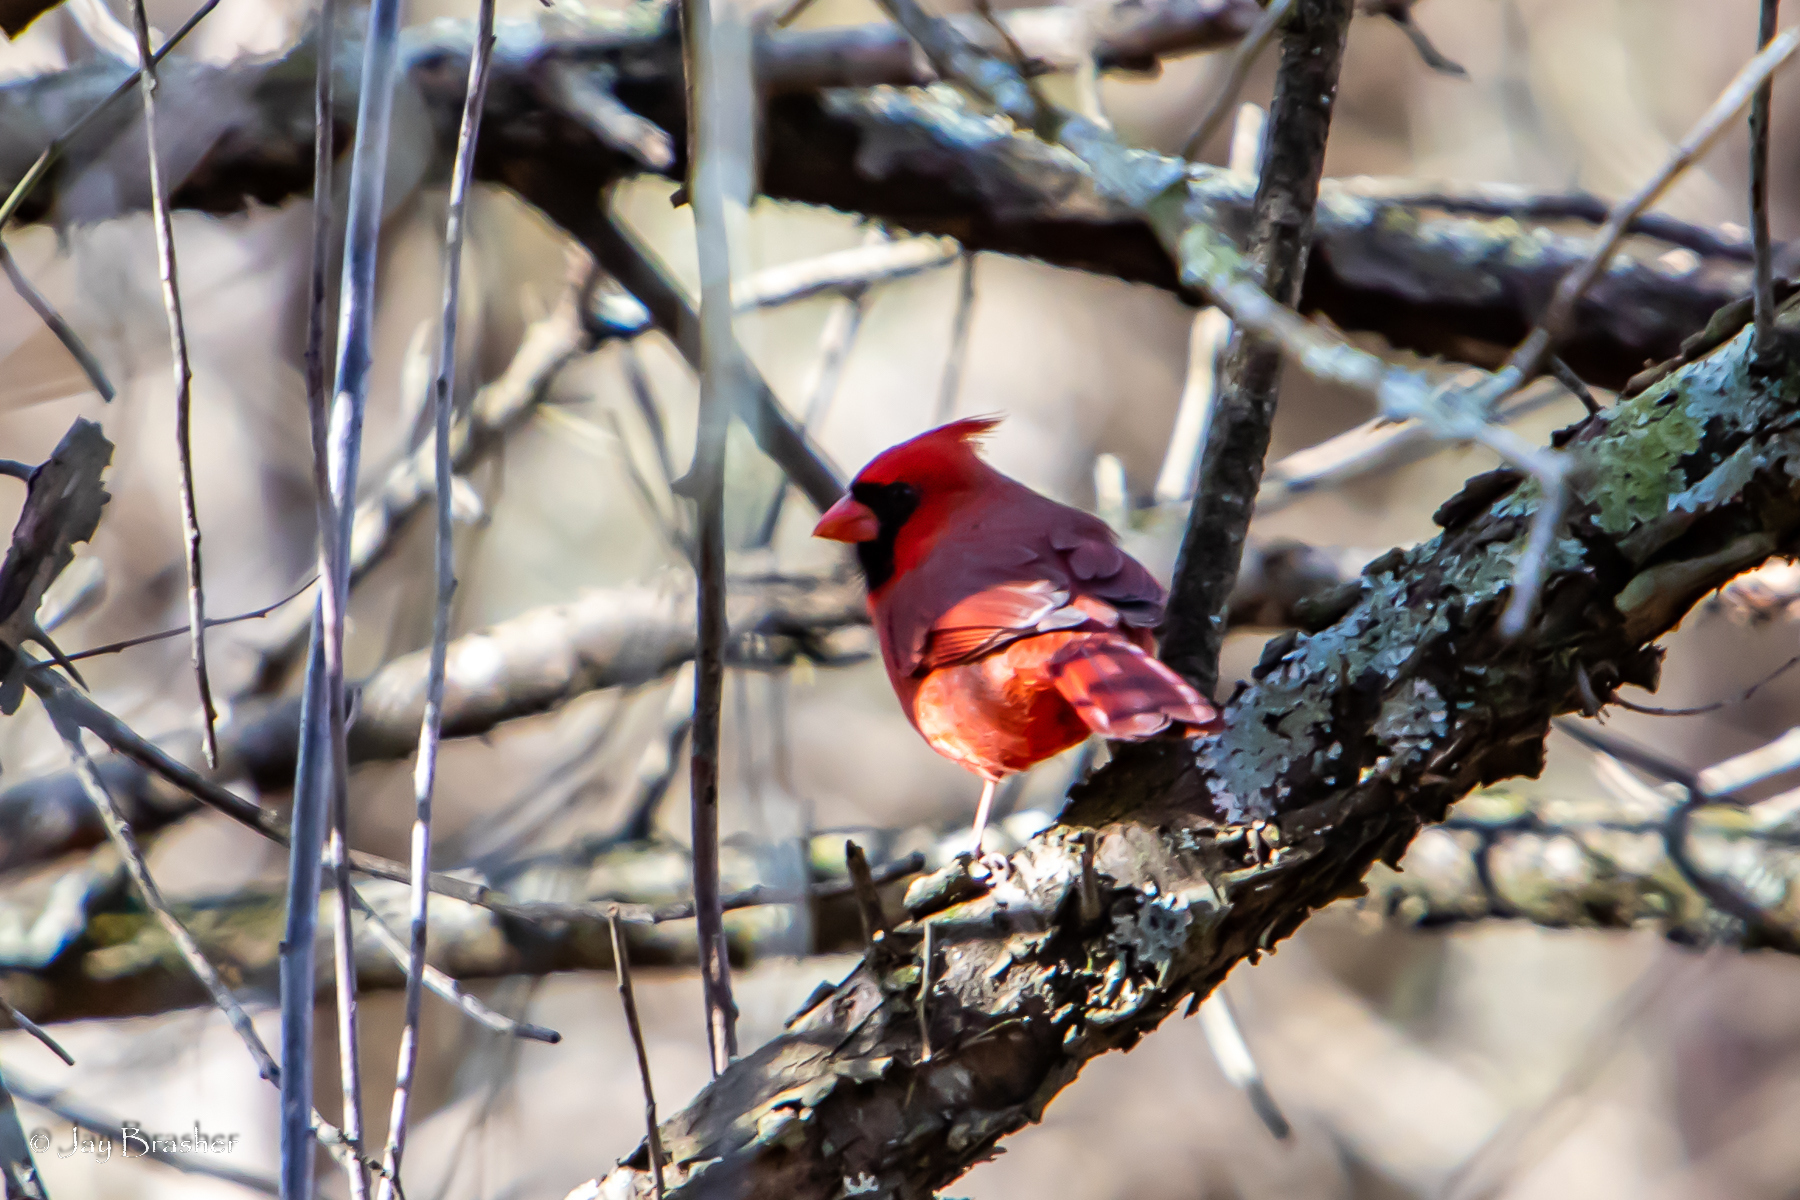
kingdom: Animalia
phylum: Chordata
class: Aves
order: Passeriformes
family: Cardinalidae
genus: Cardinalis
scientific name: Cardinalis cardinalis
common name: Northern cardinal
